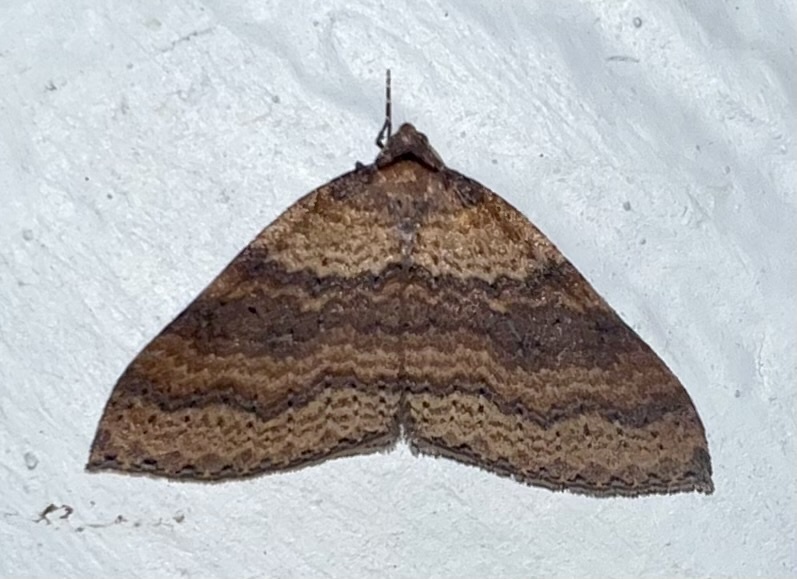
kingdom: Animalia
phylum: Arthropoda
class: Insecta
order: Lepidoptera
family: Geometridae
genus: Larentia
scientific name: Larentia apotoma
